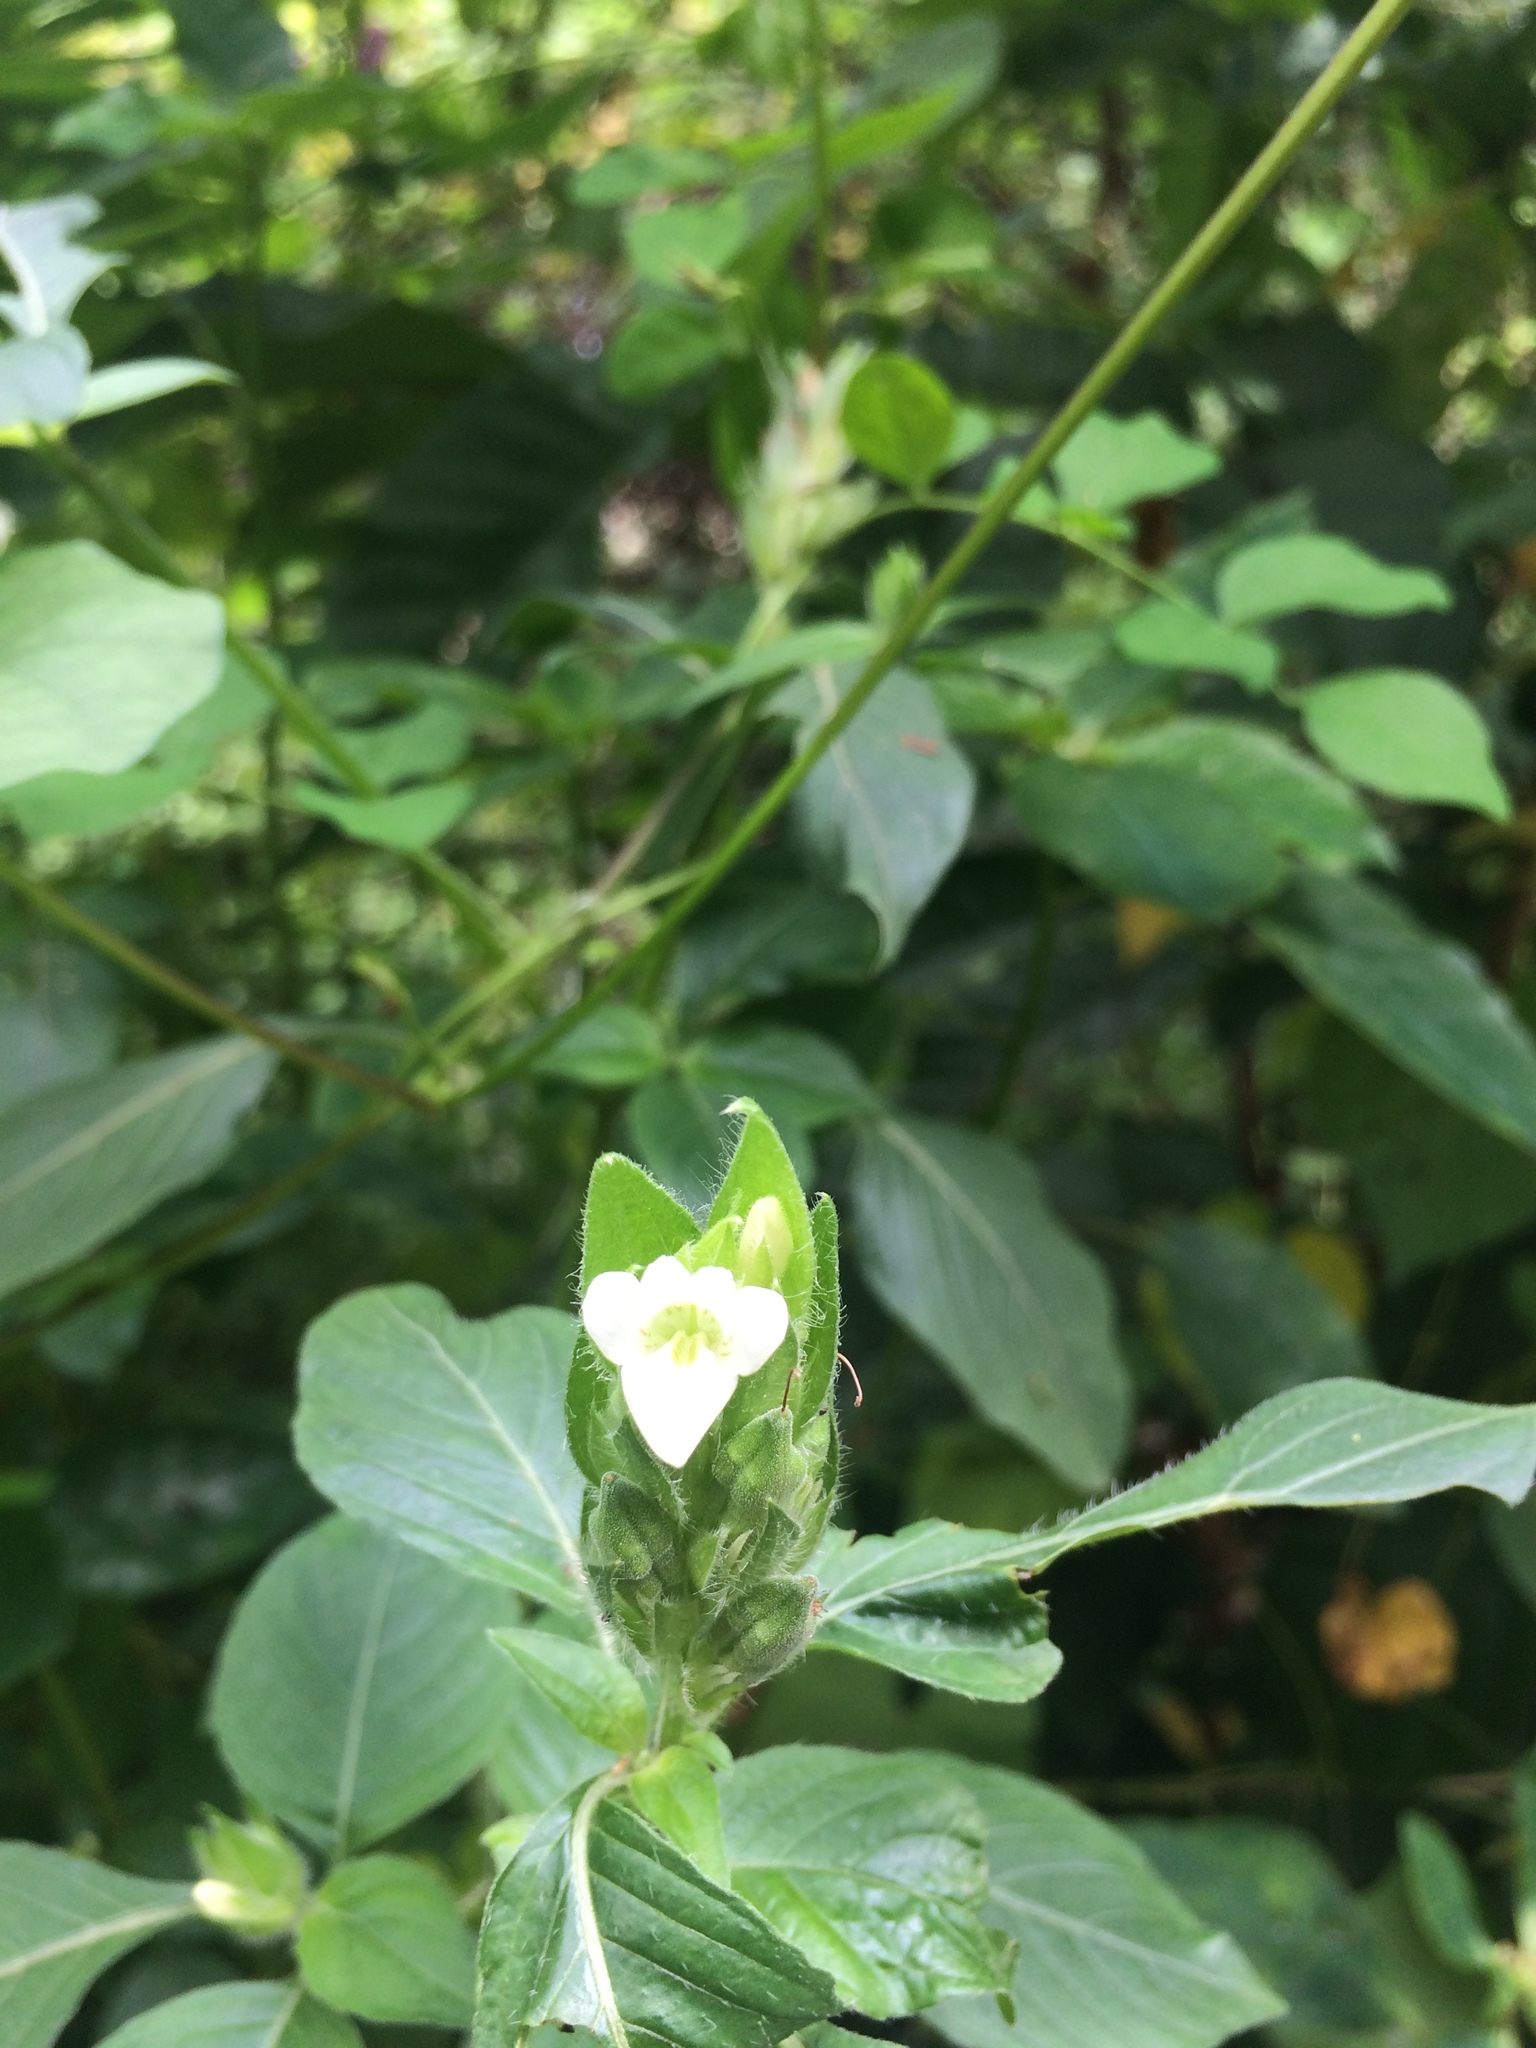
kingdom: Plantae
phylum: Tracheophyta
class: Magnoliopsida
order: Lamiales
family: Acanthaceae
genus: Asystasia
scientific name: Asystasia mysorensis
